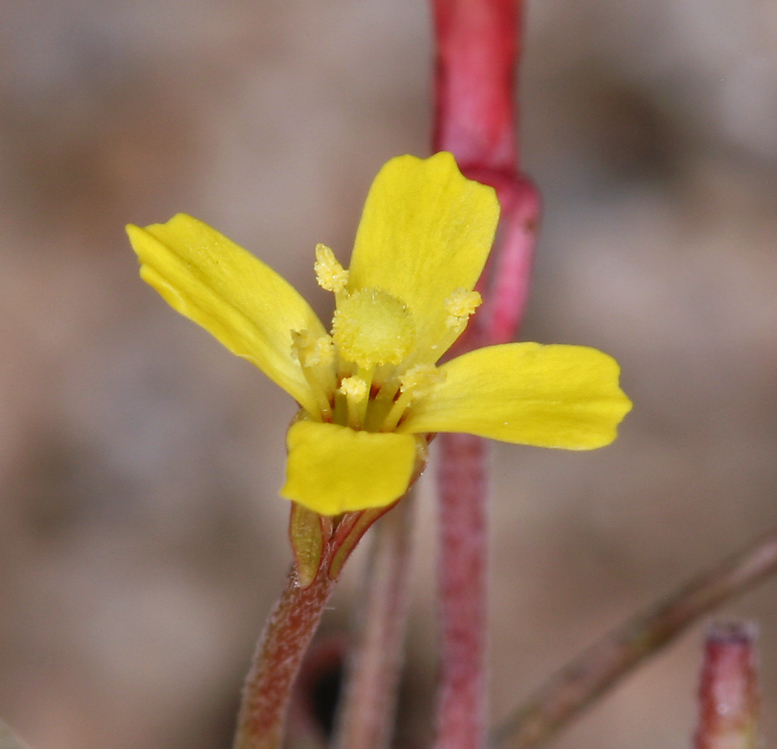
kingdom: Plantae
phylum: Tracheophyta
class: Magnoliopsida
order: Myrtales
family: Onagraceae
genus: Camissonia
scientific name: Camissonia parvula
